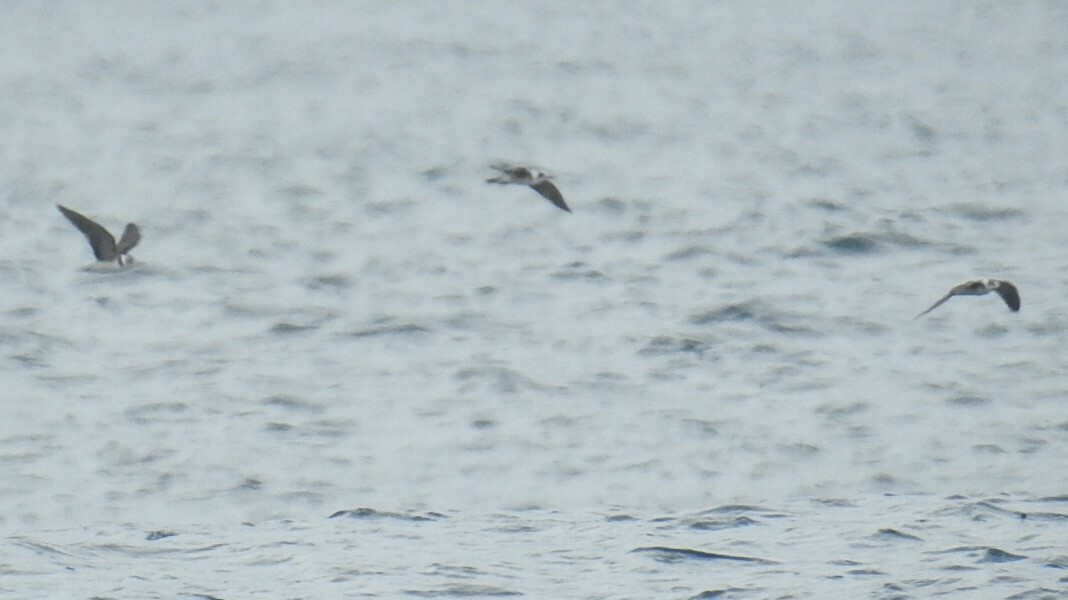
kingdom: Animalia
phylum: Chordata
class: Aves
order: Charadriiformes
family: Laridae
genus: Chlidonias
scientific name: Chlidonias niger
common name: Black tern
